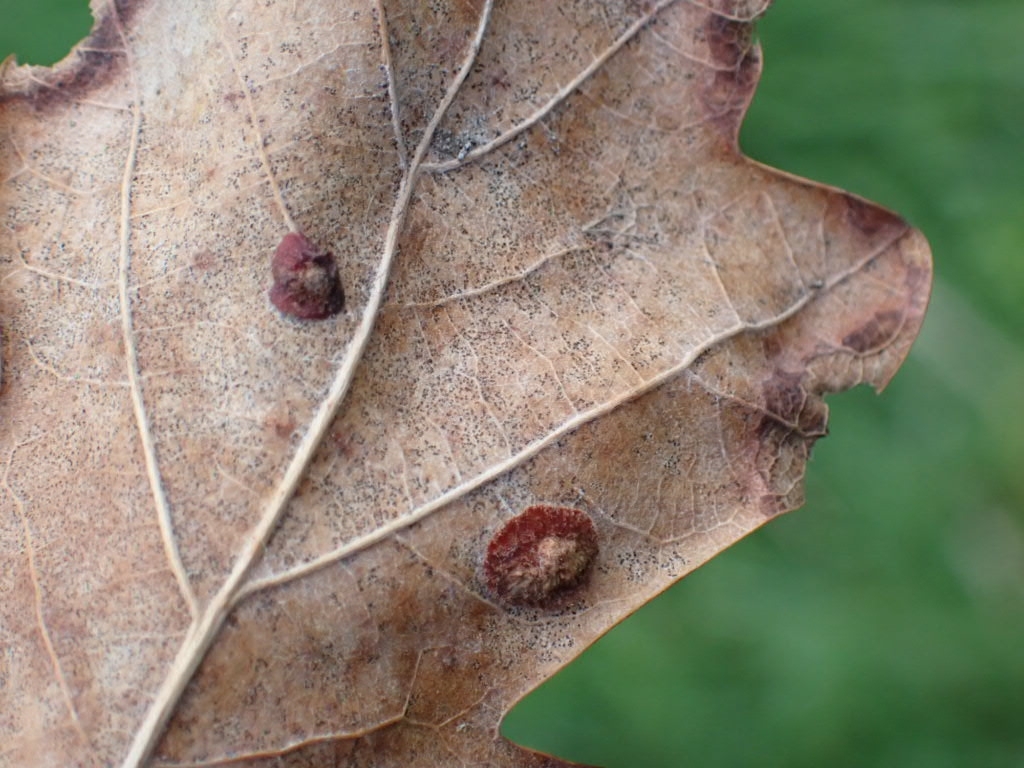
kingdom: Animalia
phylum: Arthropoda
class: Insecta
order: Hymenoptera
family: Cynipidae
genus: Neuroterus
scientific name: Neuroterus quercusbaccarum
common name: Common spangle gall
